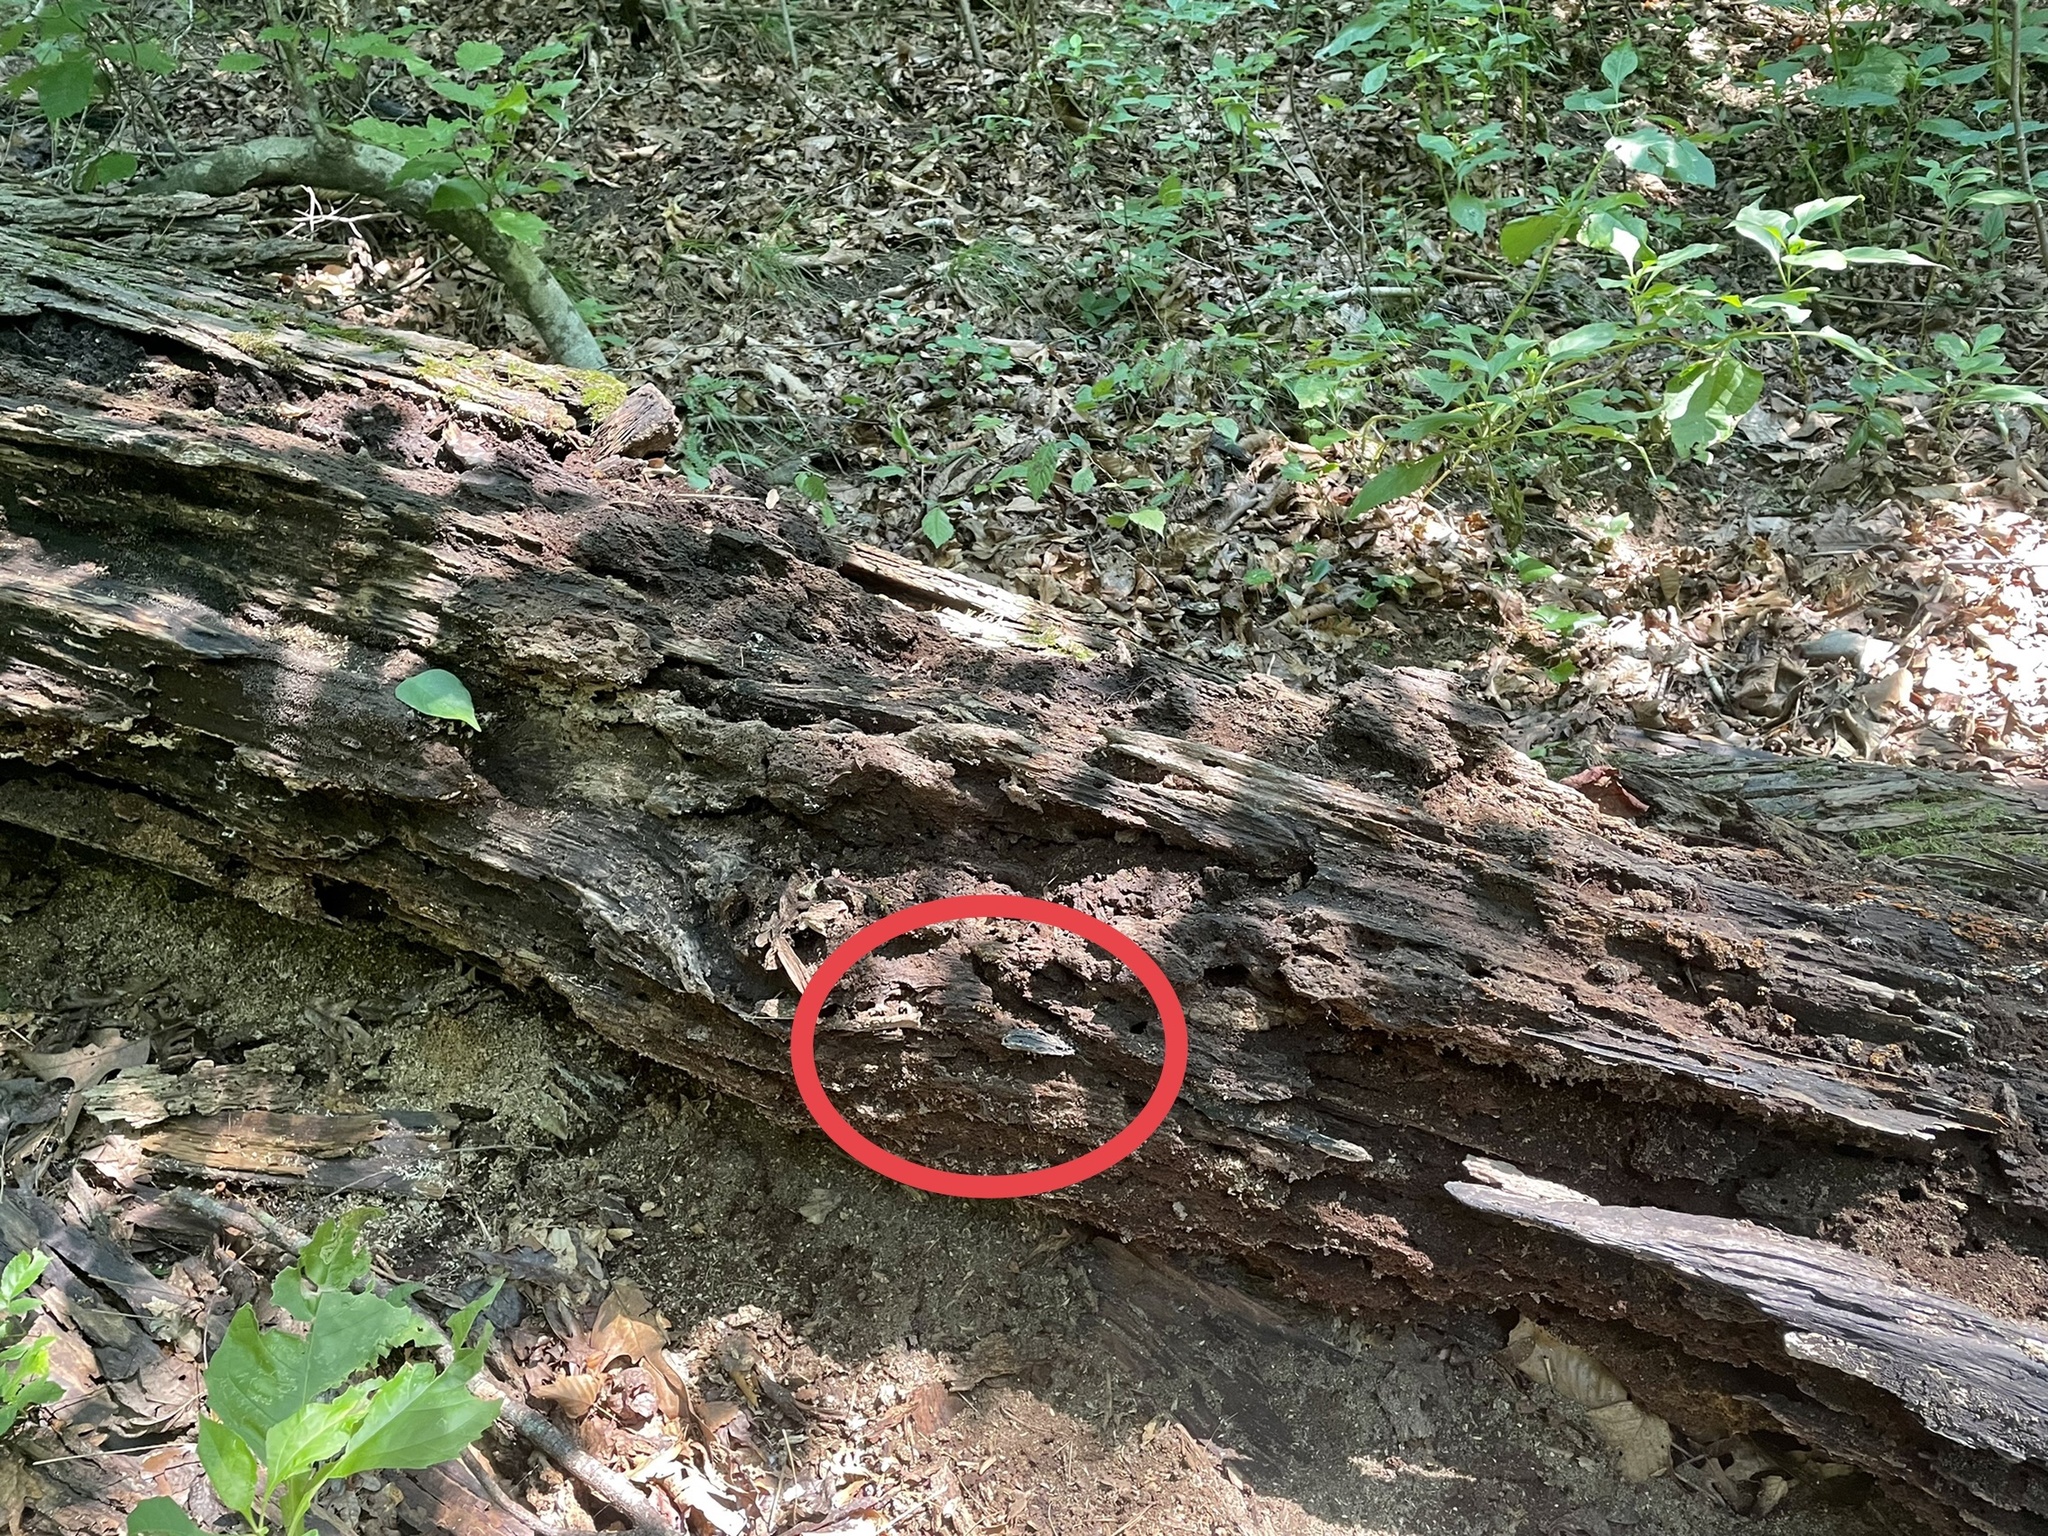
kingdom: Protozoa
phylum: Mycetozoa
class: Myxomycetes
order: Trichiales
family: Arcyriaceae
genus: Hemitrichia
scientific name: Hemitrichia calyculata
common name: Push pin slime mold
